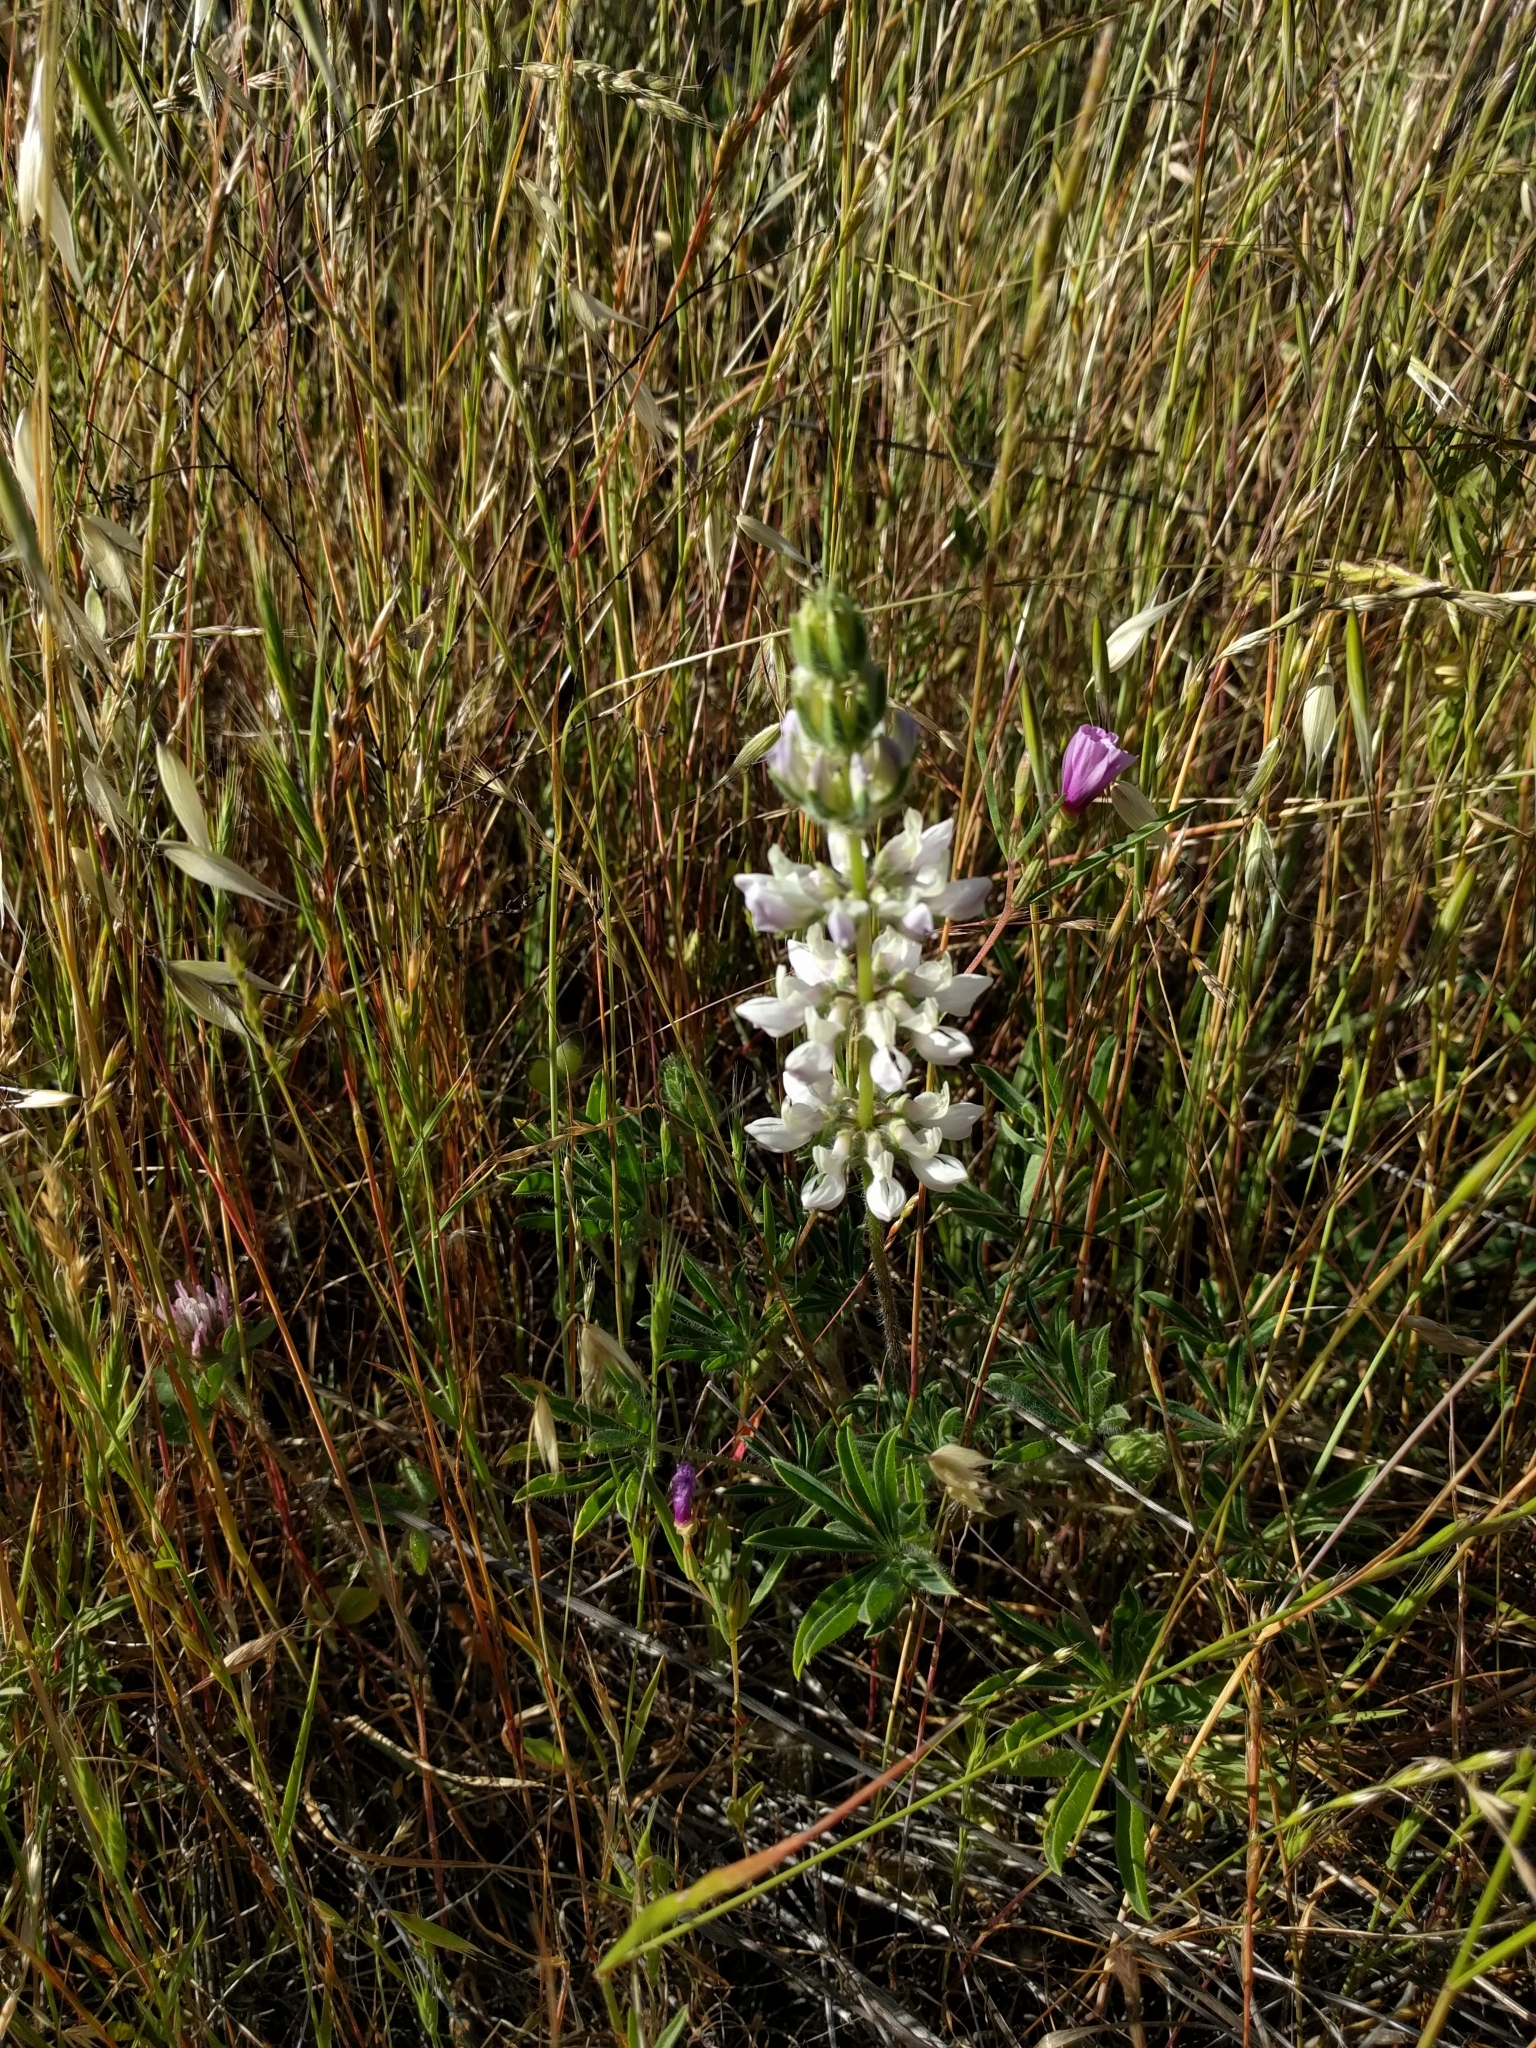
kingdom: Plantae
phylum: Tracheophyta
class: Magnoliopsida
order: Fabales
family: Fabaceae
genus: Lupinus
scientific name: Lupinus microcarpus
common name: Chick lupine
